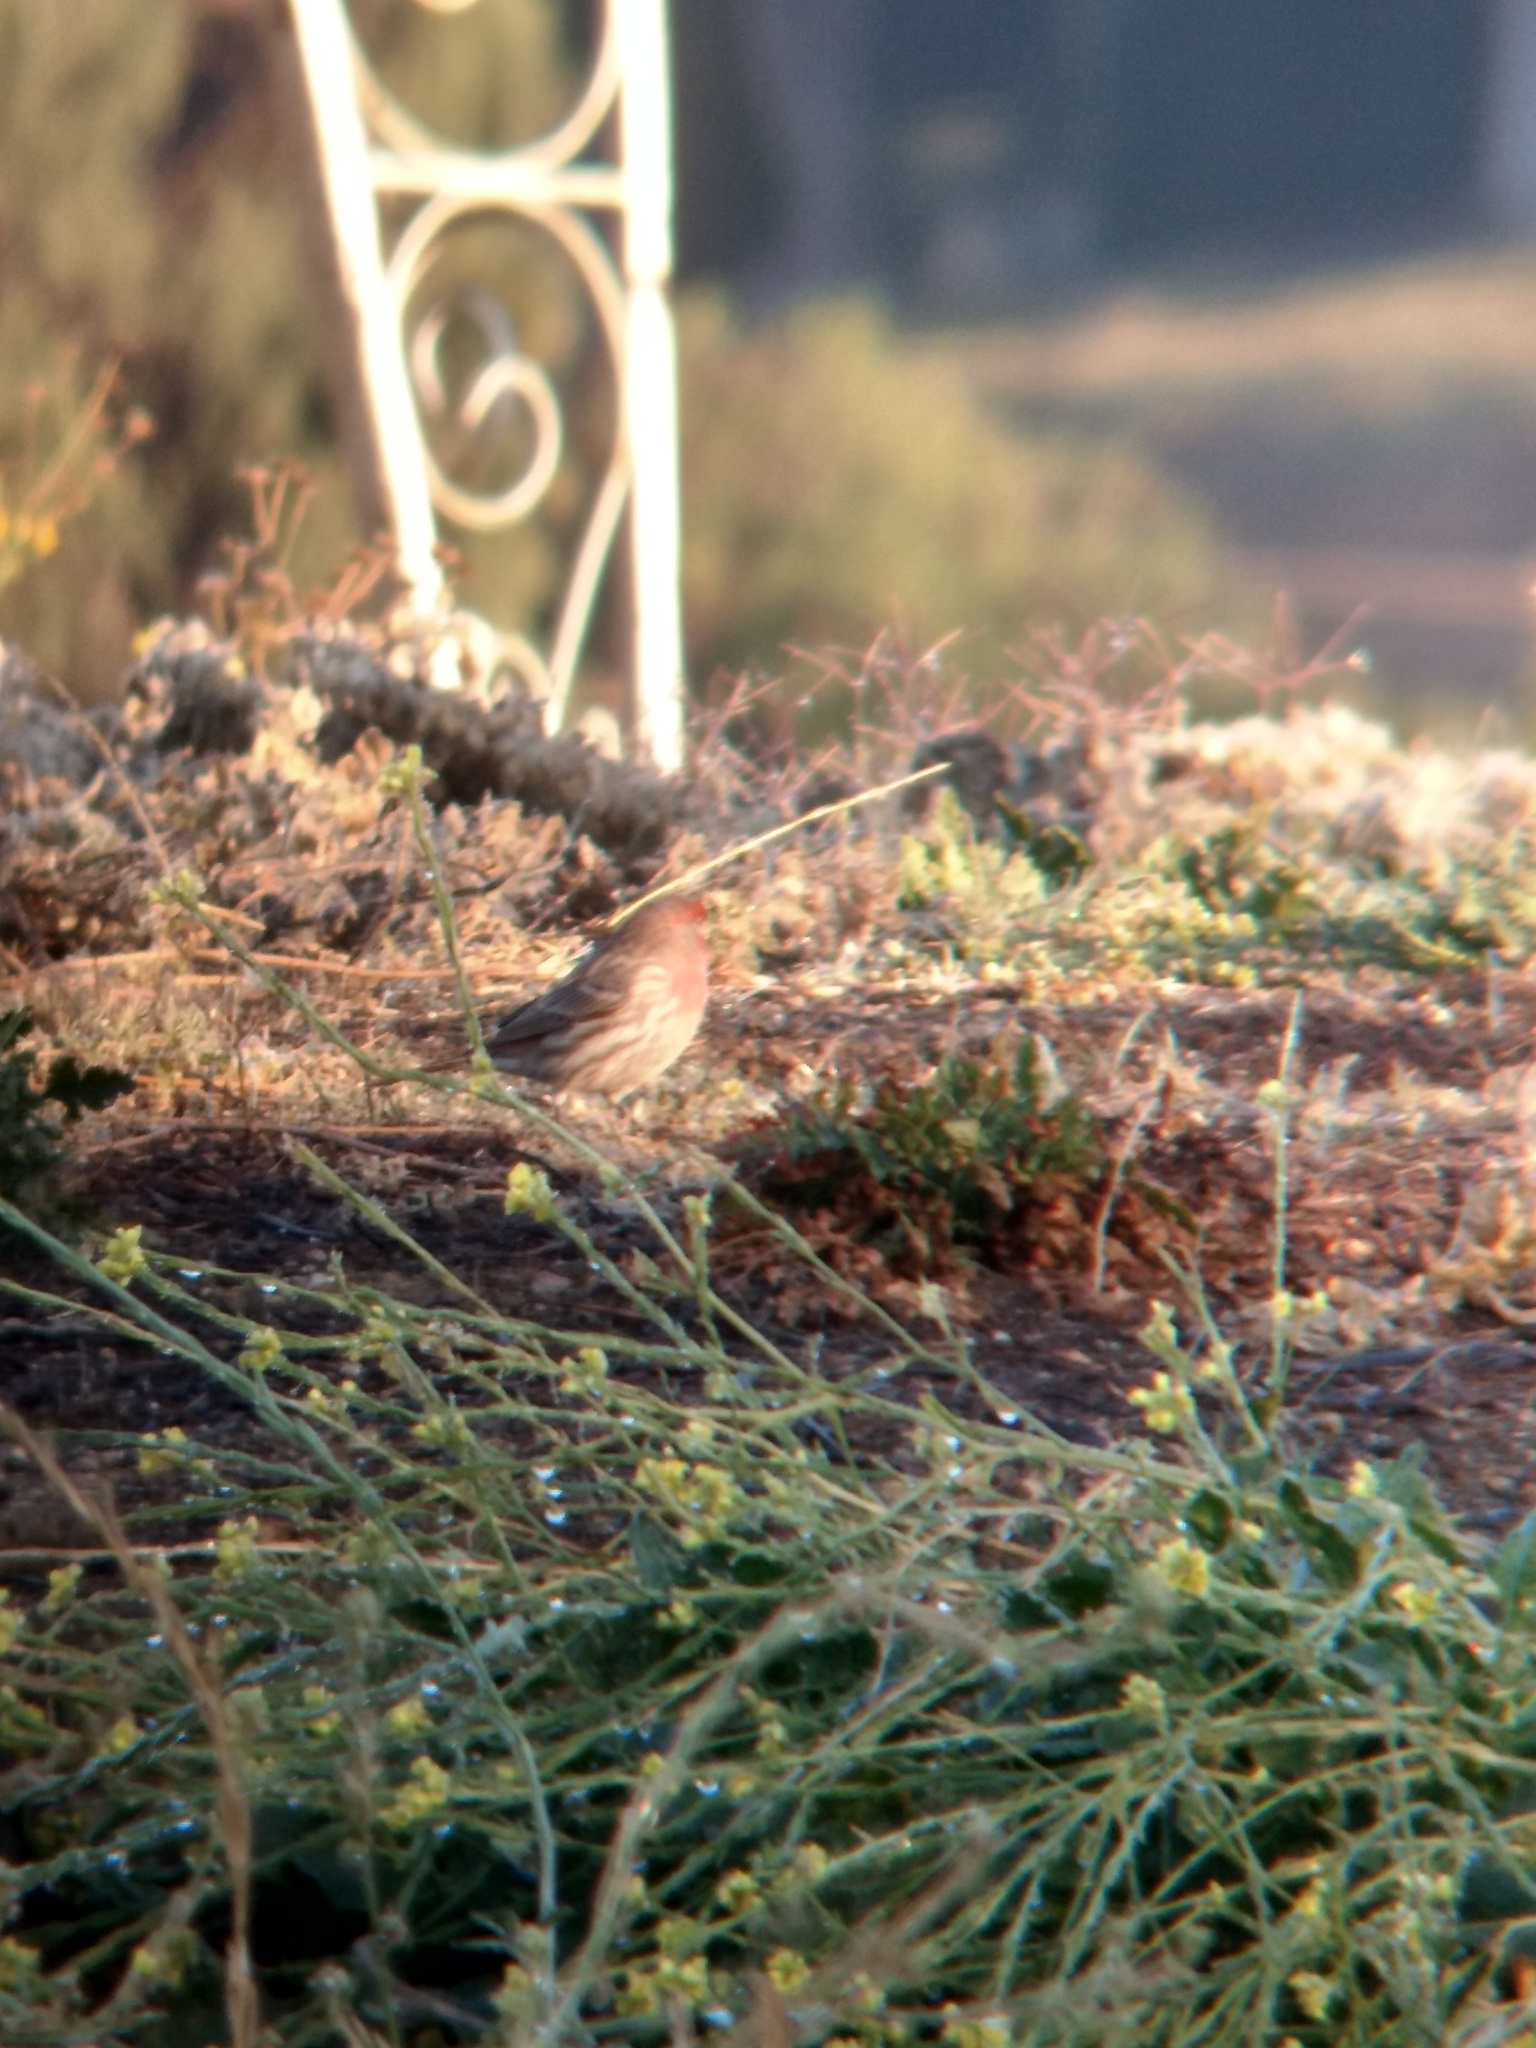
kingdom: Animalia
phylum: Chordata
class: Aves
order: Passeriformes
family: Fringillidae
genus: Haemorhous
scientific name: Haemorhous mexicanus
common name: House finch
